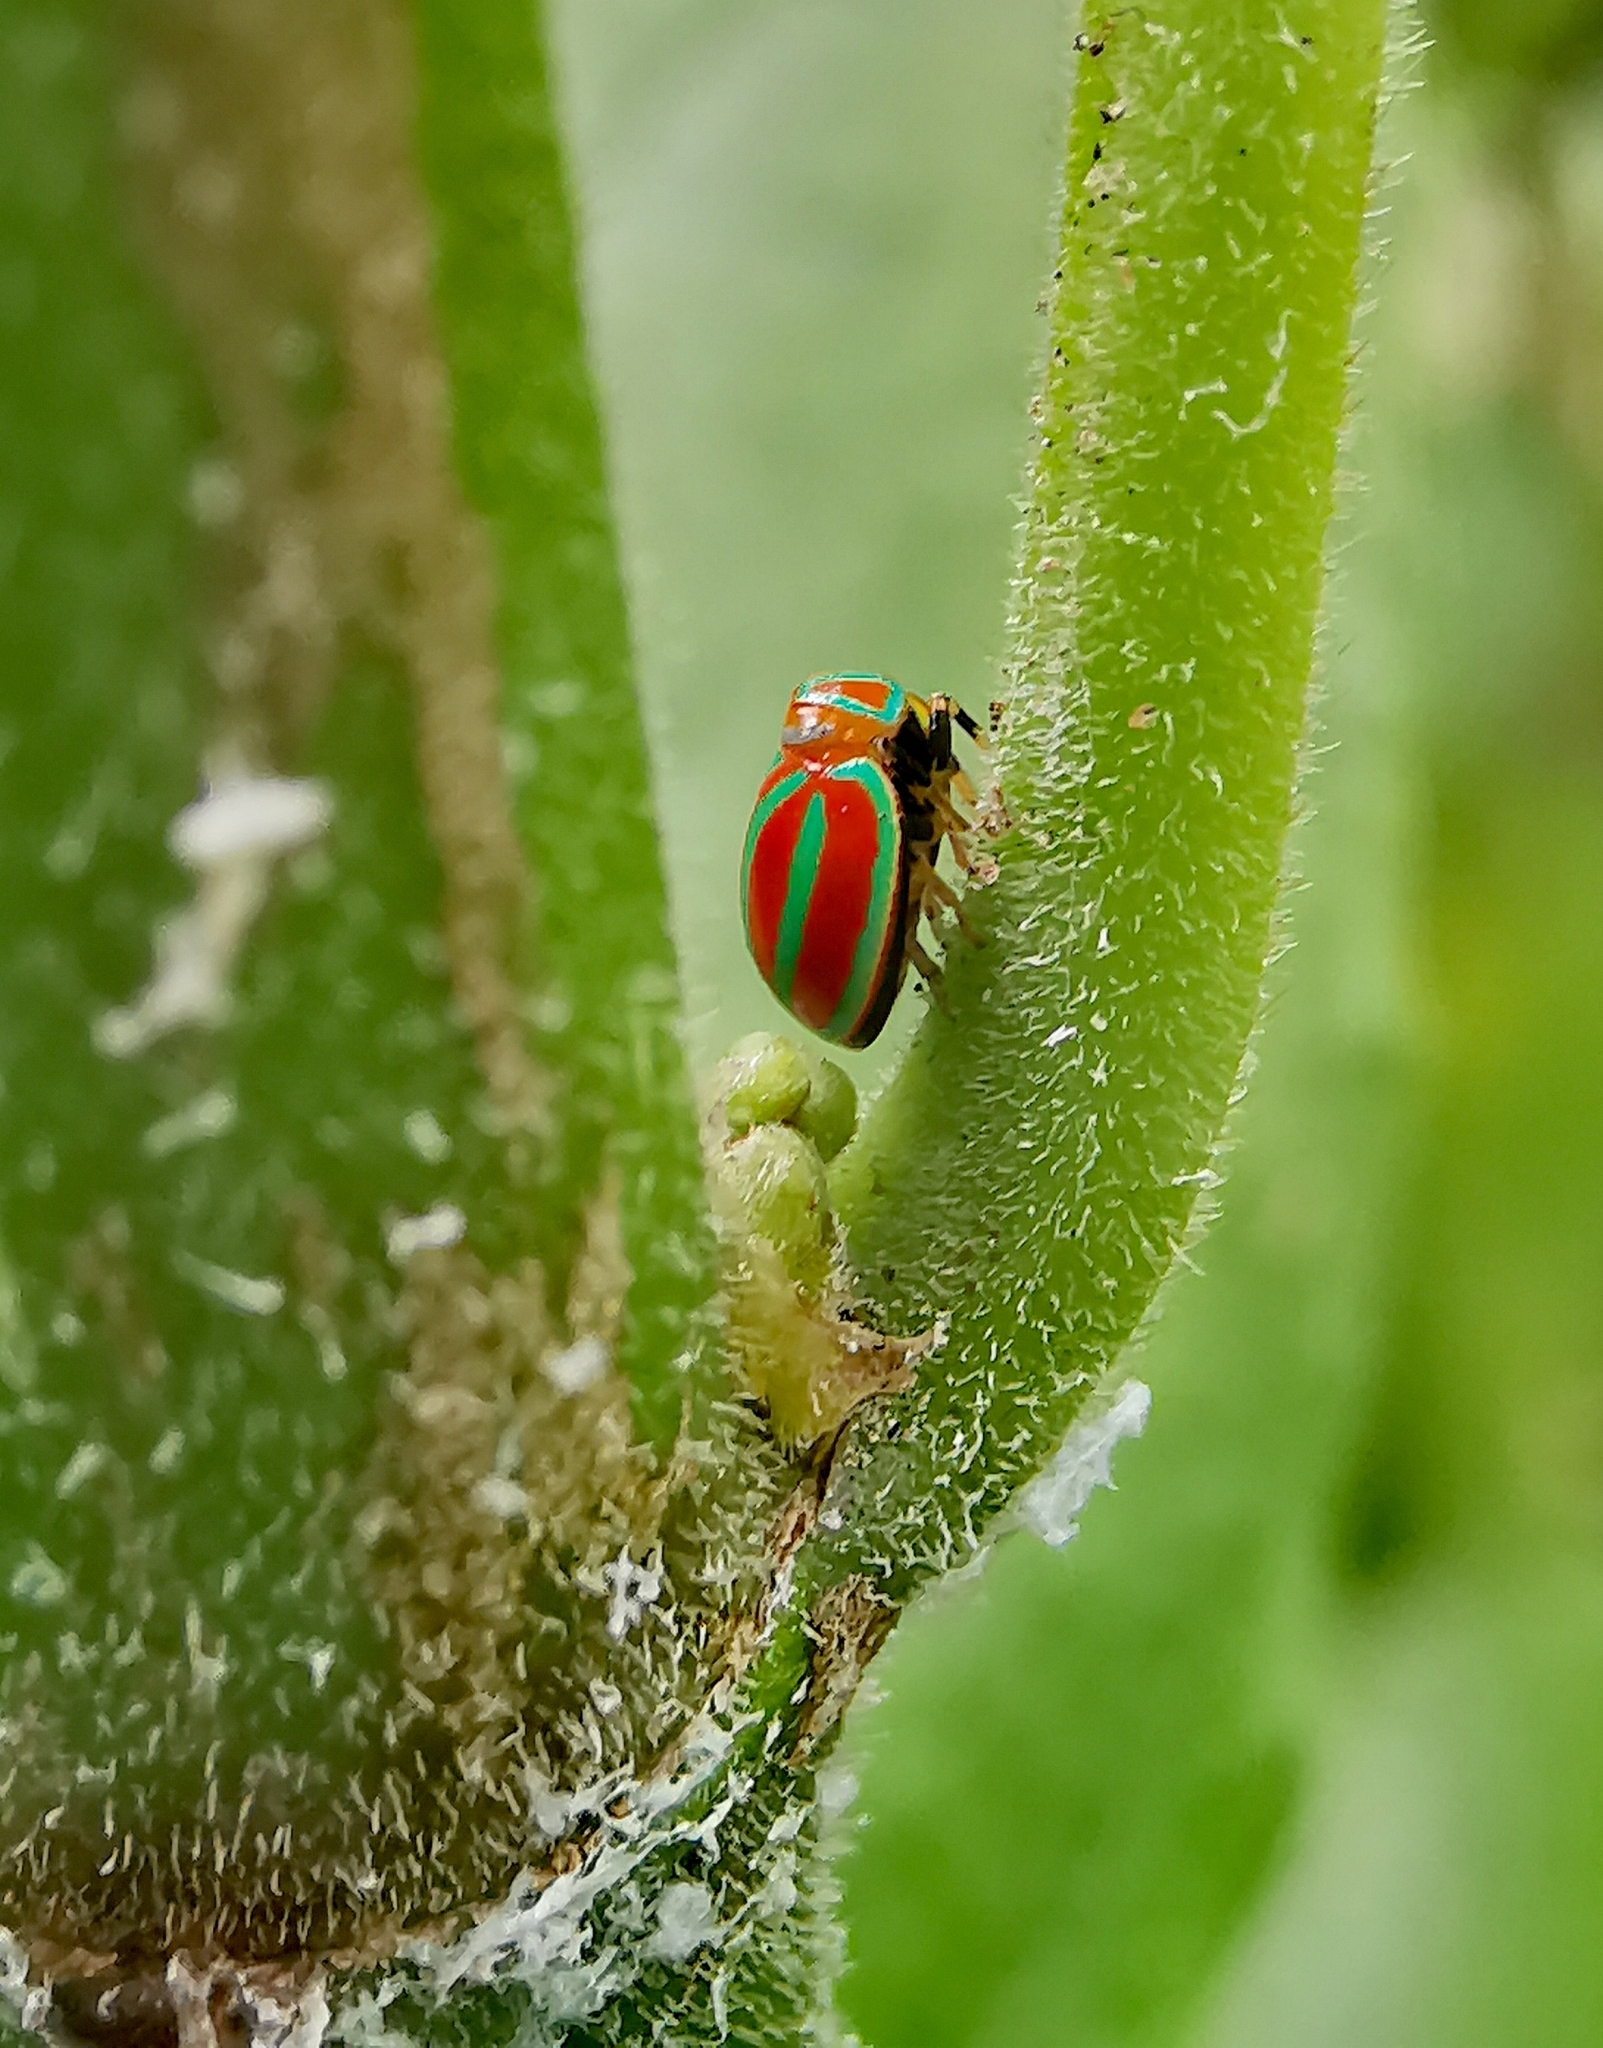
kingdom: Animalia
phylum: Arthropoda
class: Insecta
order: Hemiptera
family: Issidae
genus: Hemisphaerius
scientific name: Hemisphaerius coccinelloides
